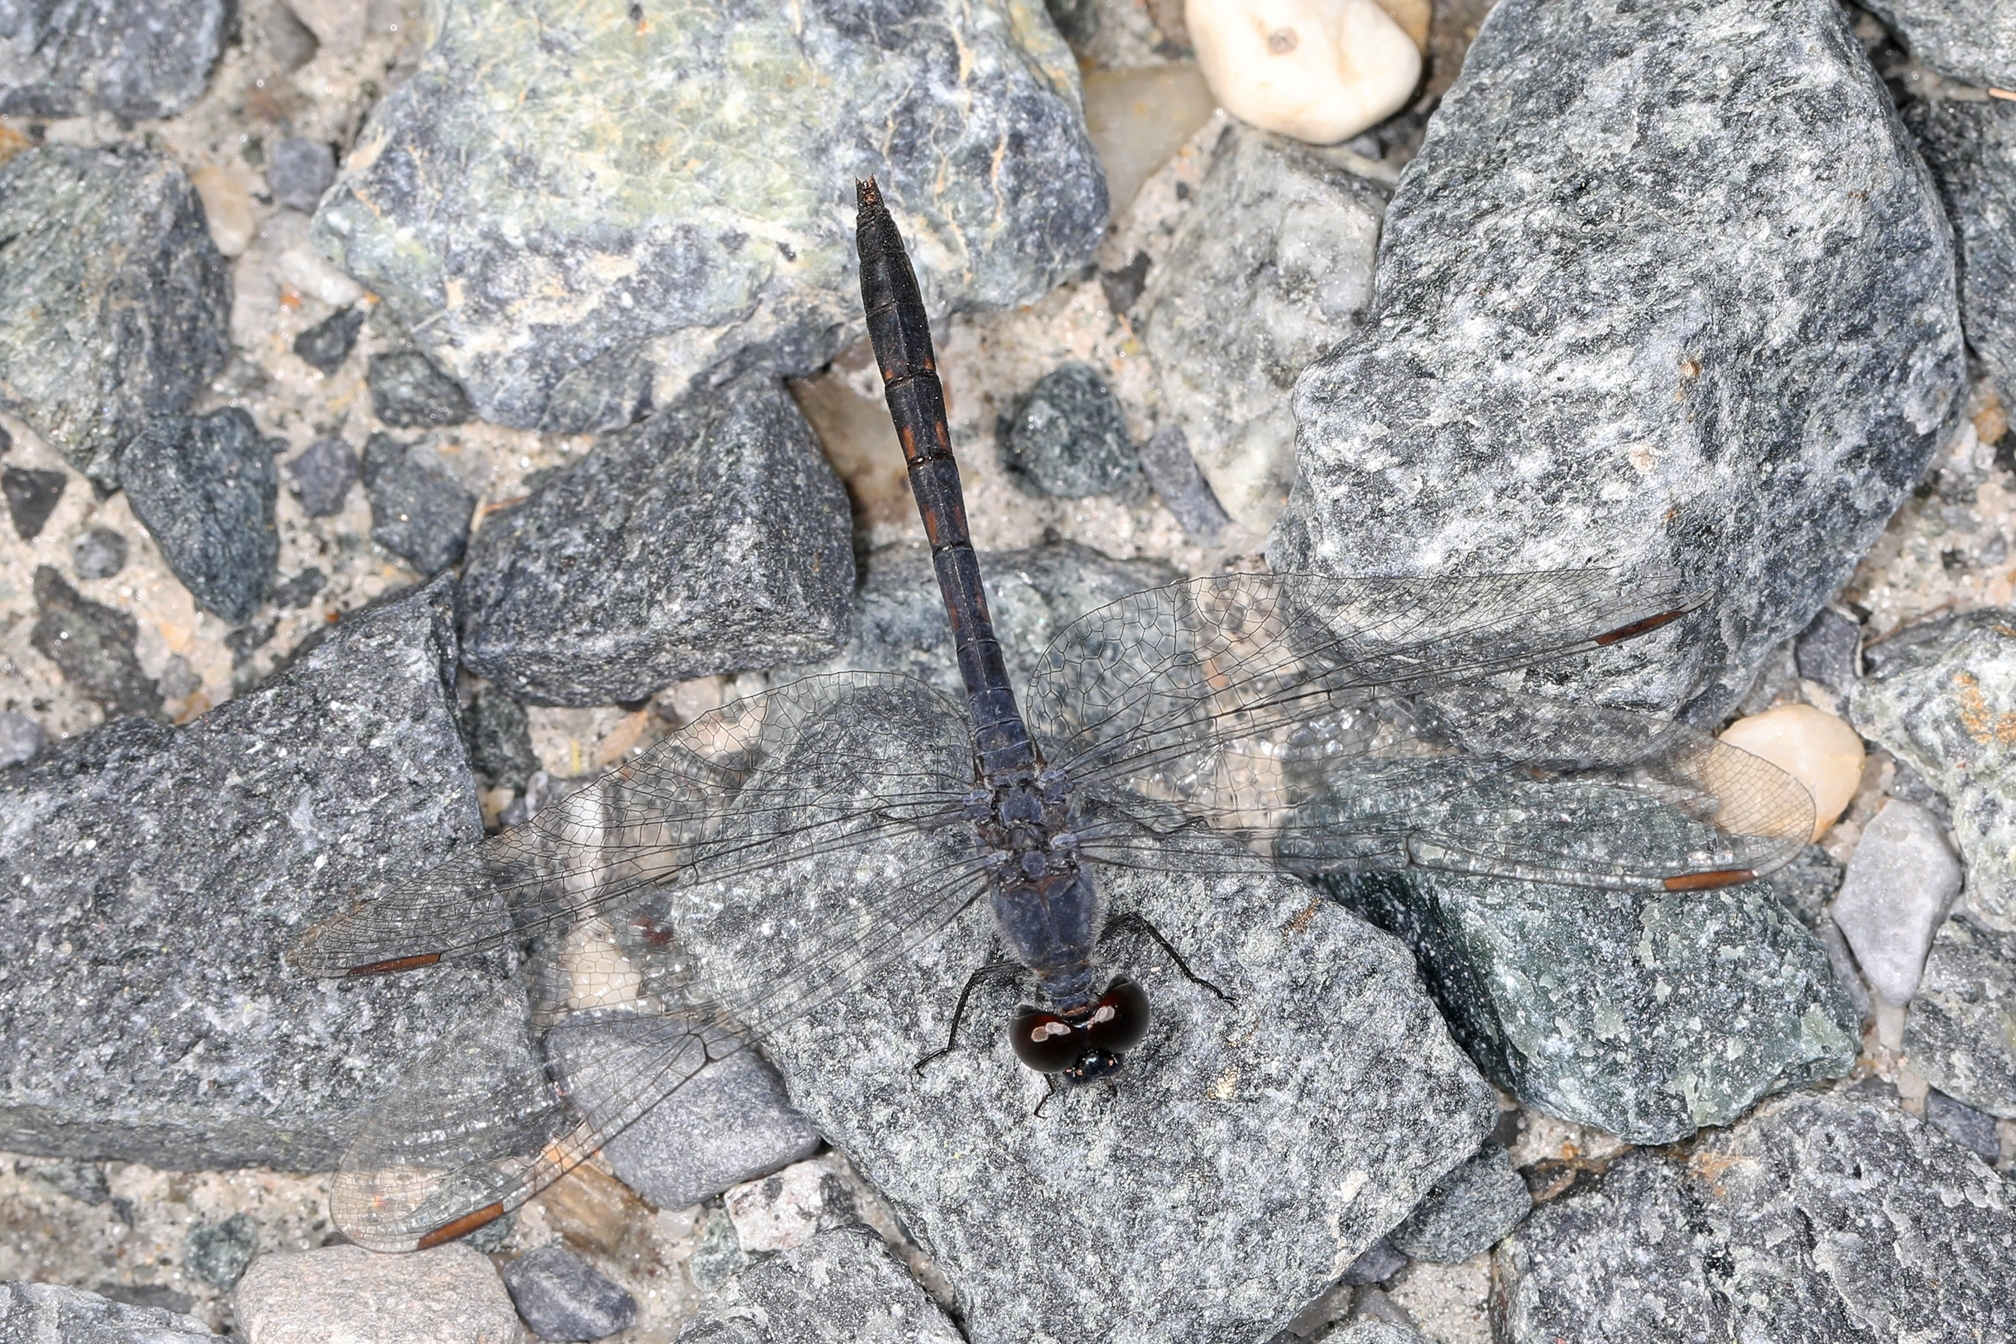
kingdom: Animalia
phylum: Arthropoda
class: Insecta
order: Odonata
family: Libellulidae
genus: Erythrodiplax
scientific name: Erythrodiplax berenice
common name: Seaside dragonlet
